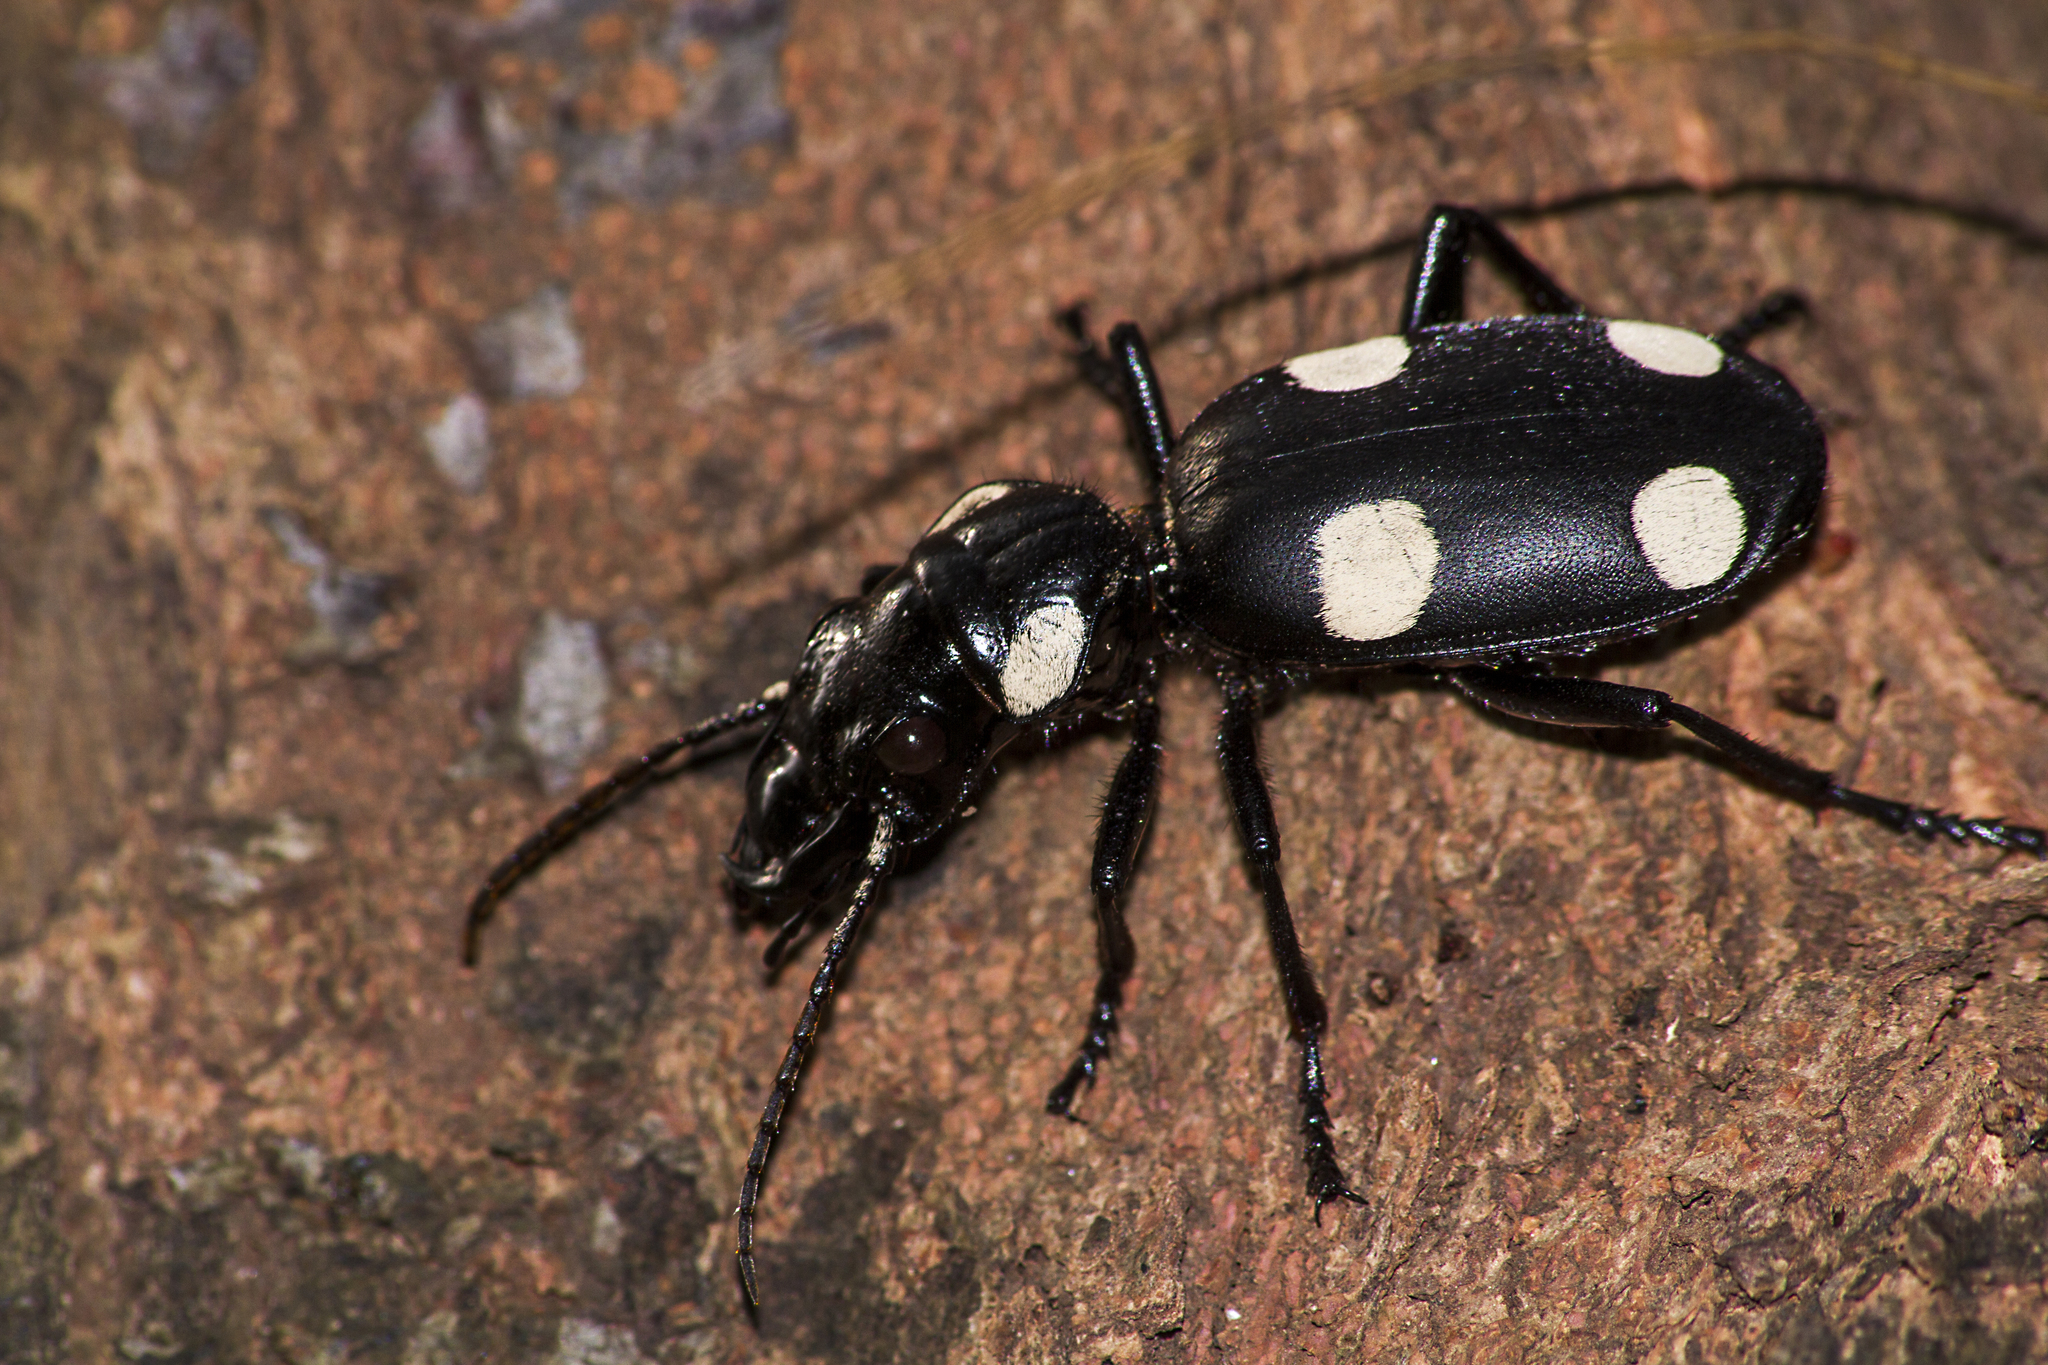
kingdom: Animalia
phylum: Arthropoda
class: Insecta
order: Coleoptera
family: Carabidae
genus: Anthia
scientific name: Anthia sexguttata
